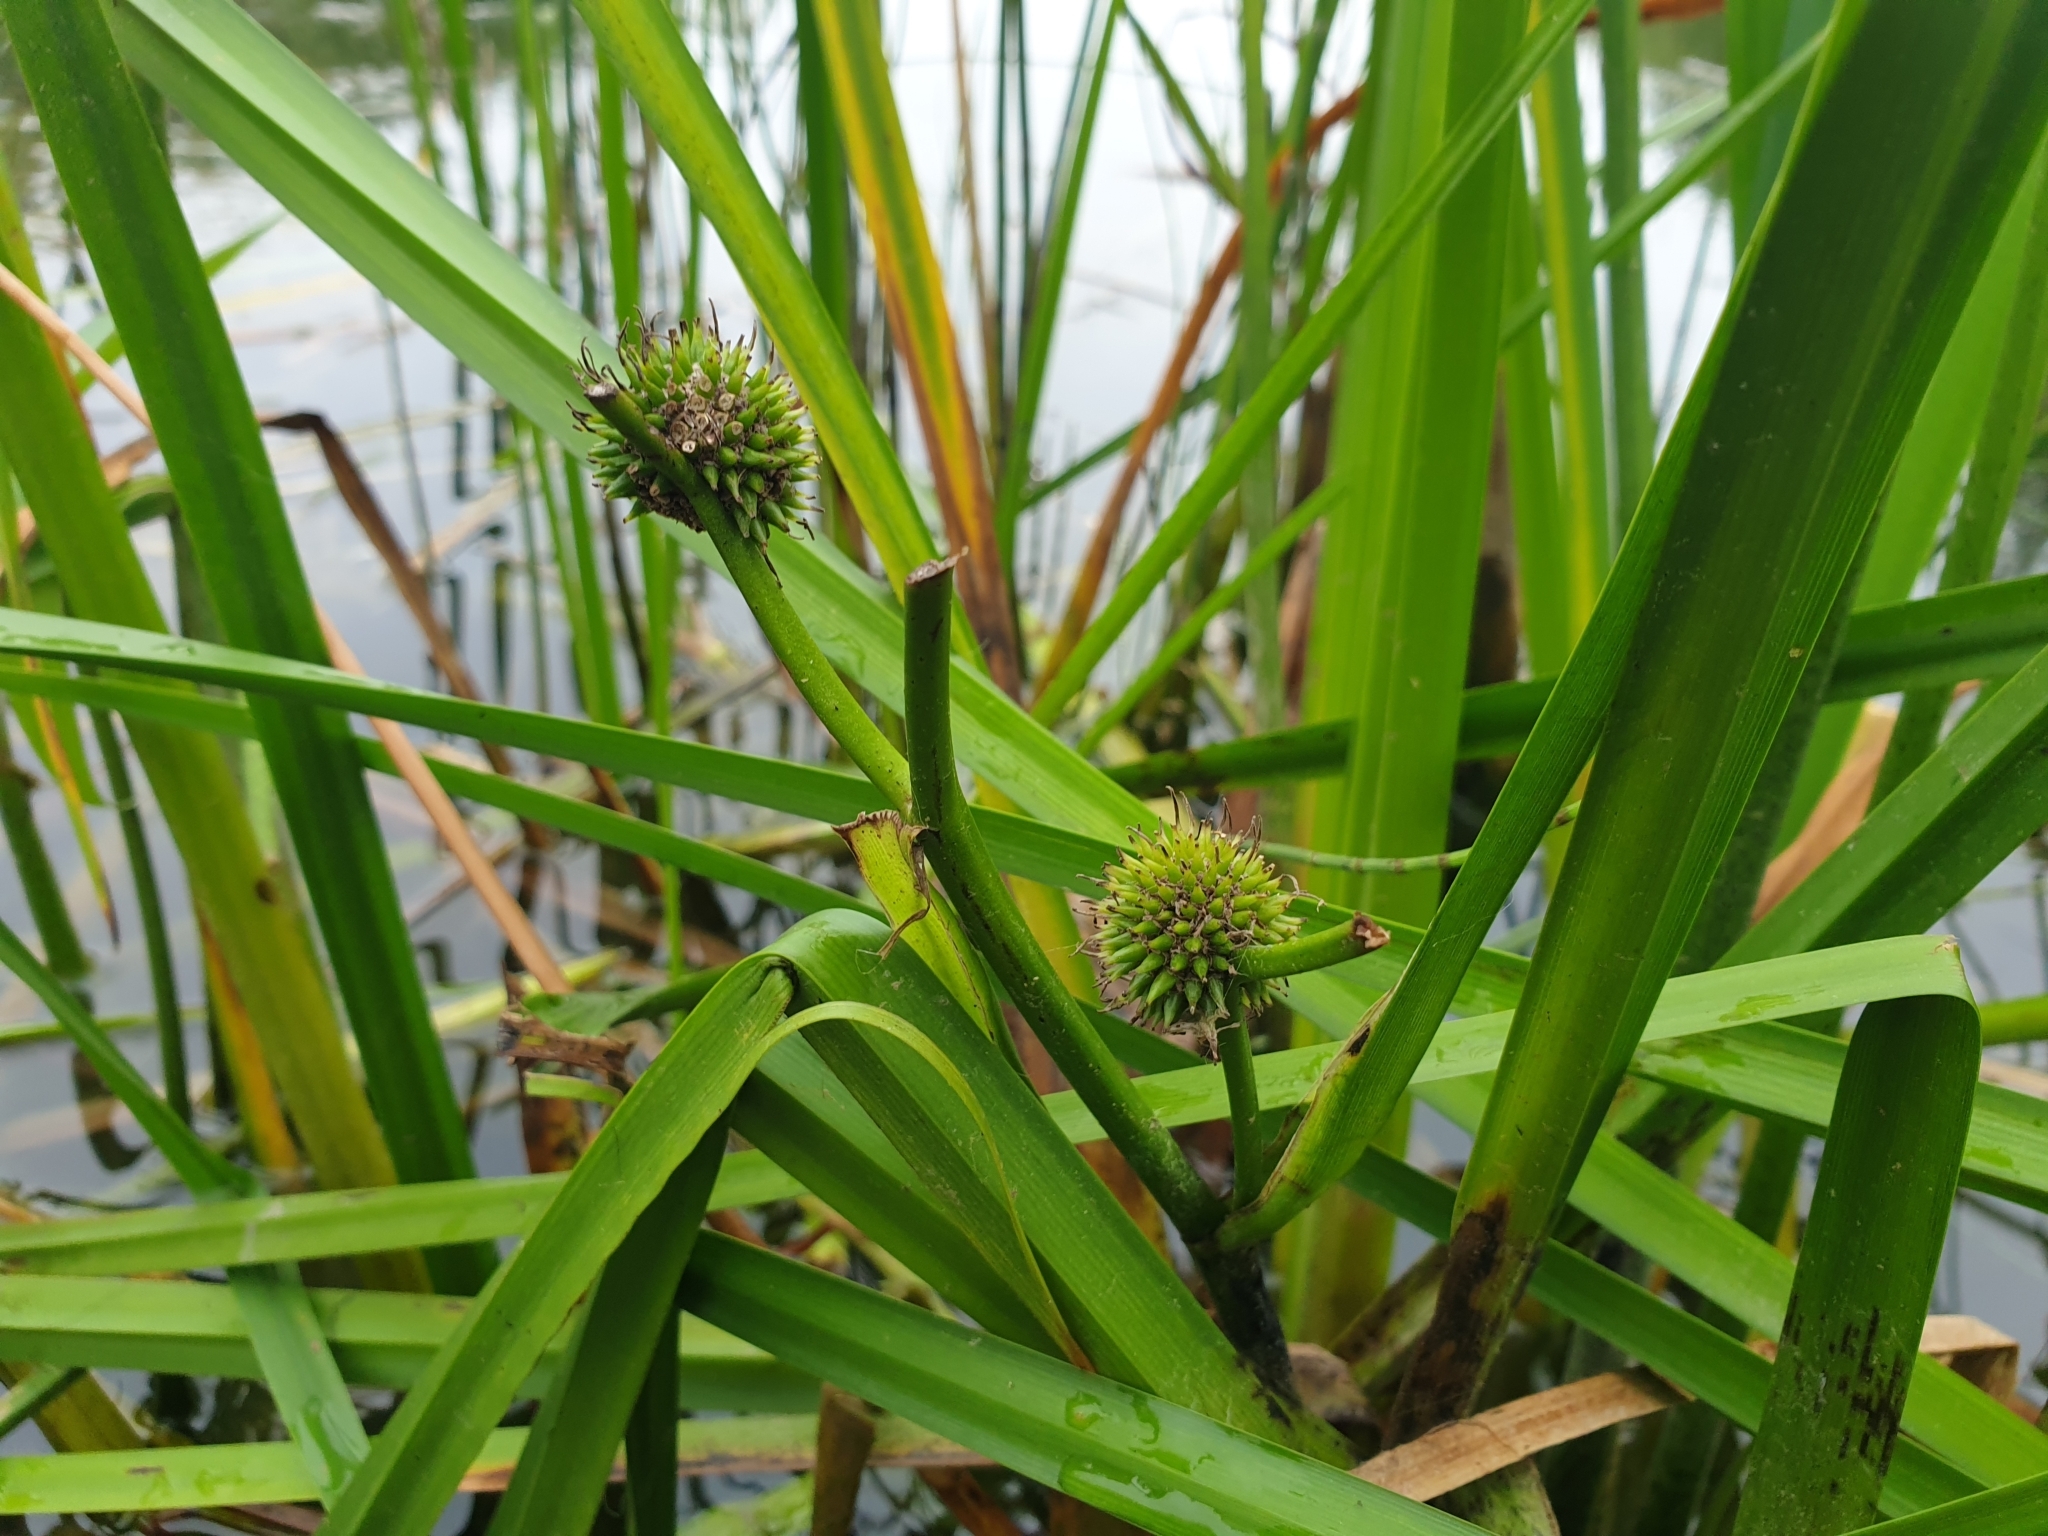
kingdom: Plantae
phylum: Tracheophyta
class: Liliopsida
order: Poales
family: Typhaceae
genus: Sparganium
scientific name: Sparganium erectum
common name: Branched bur-reed
